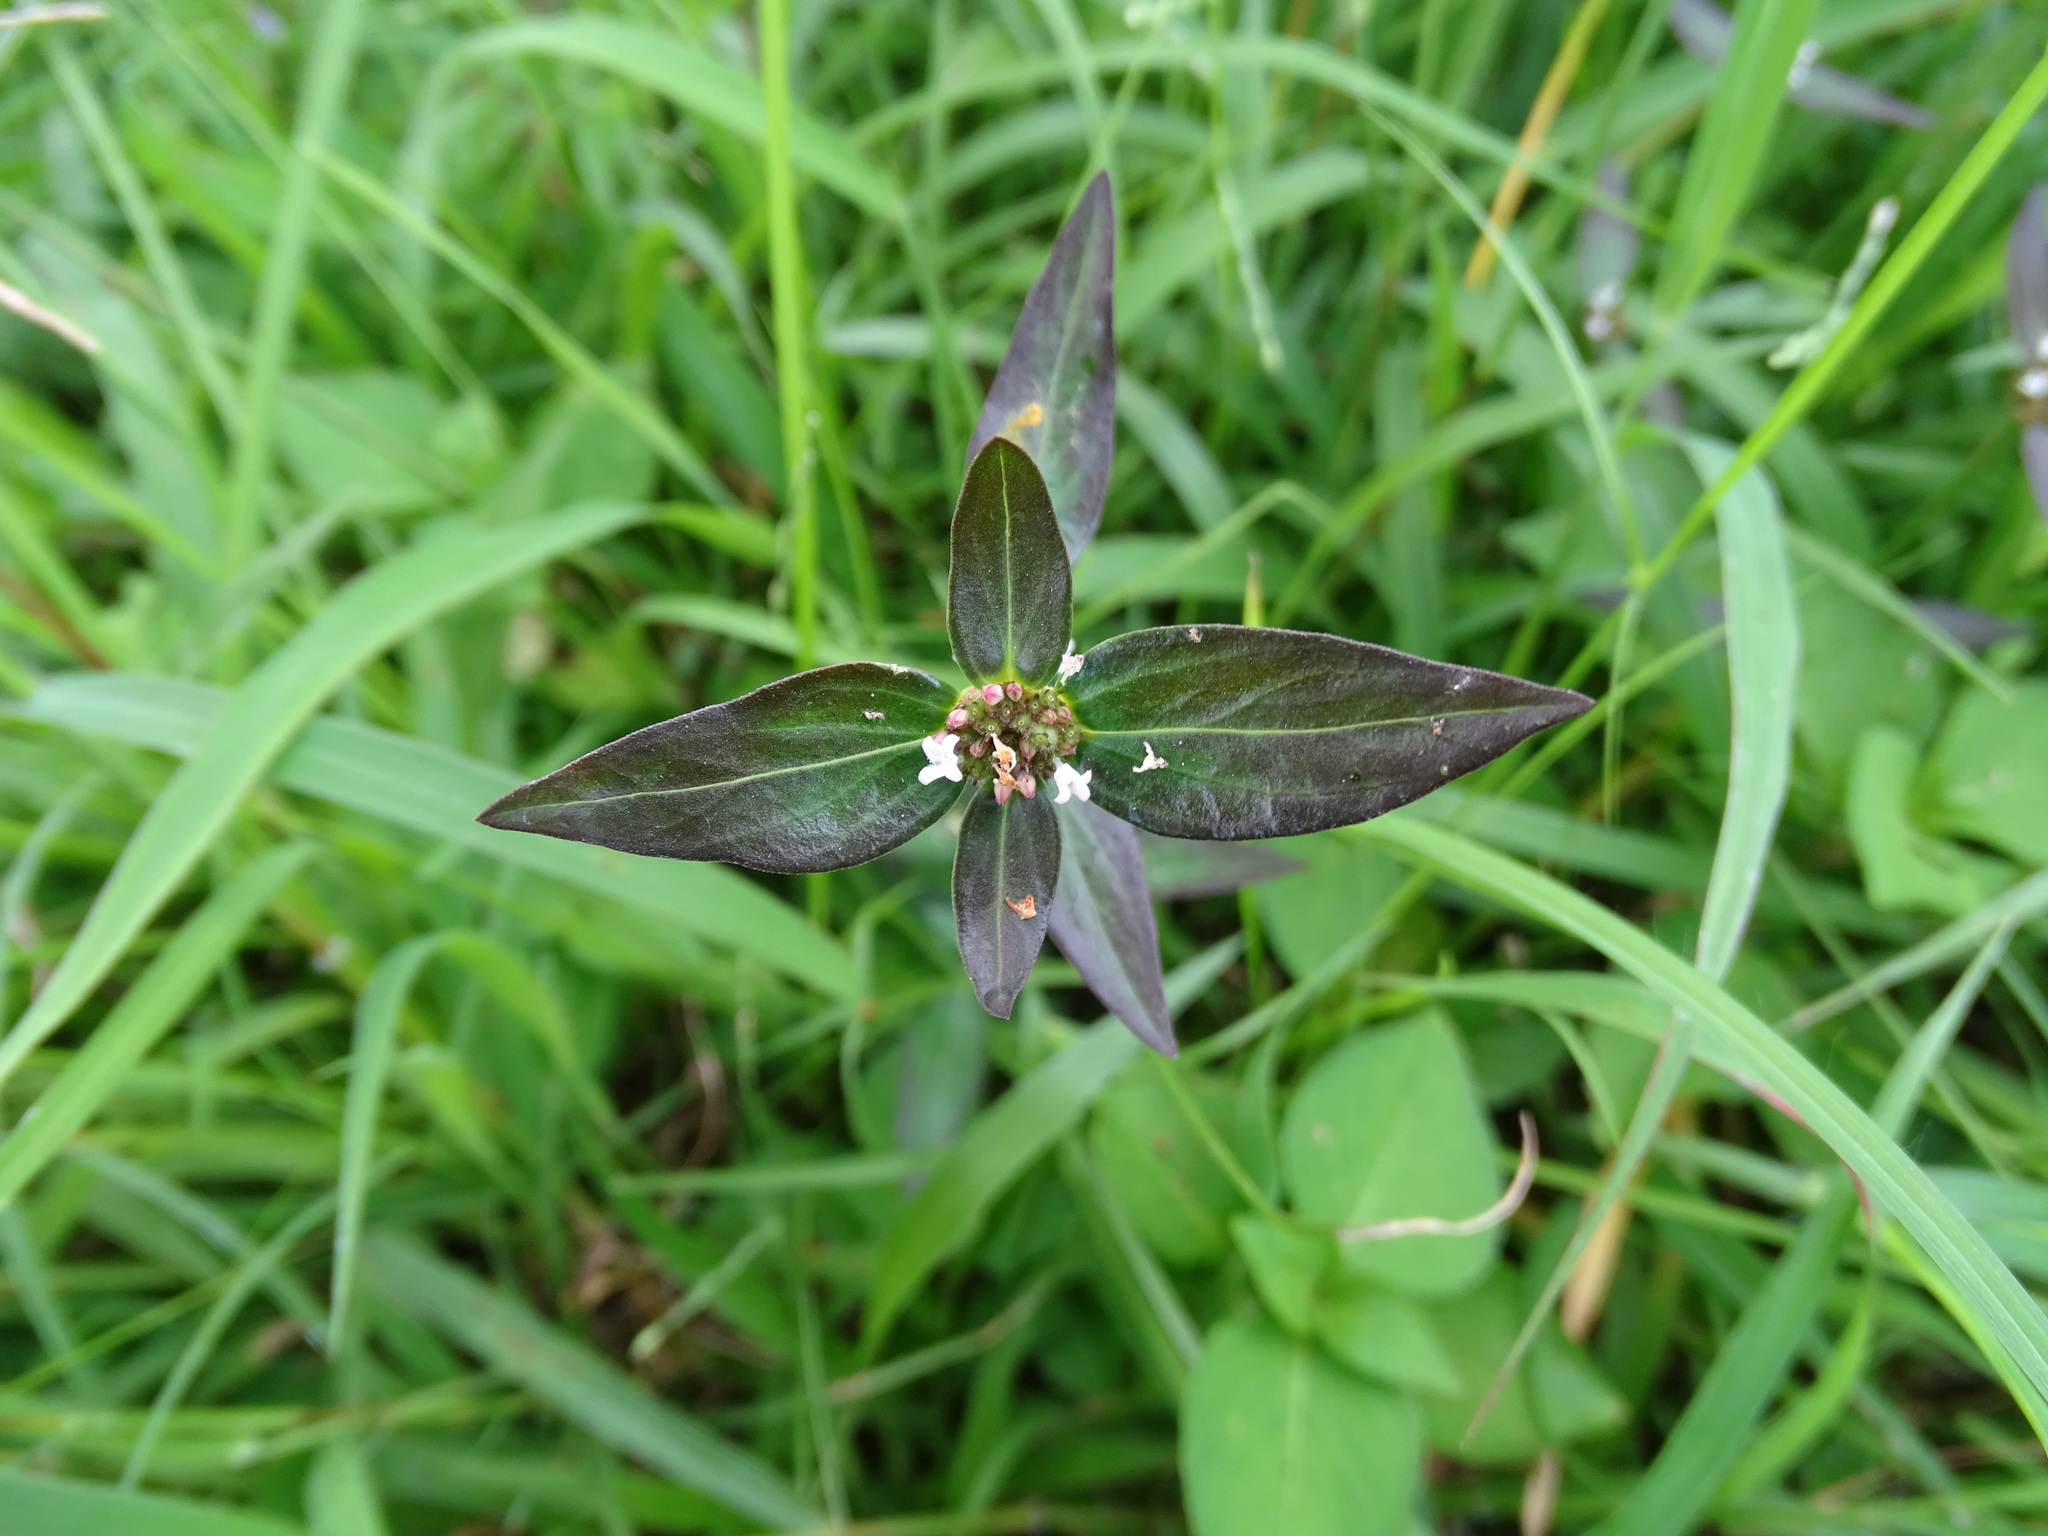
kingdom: Plantae
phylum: Tracheophyta
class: Magnoliopsida
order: Gentianales
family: Rubiaceae
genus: Spermacoce
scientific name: Spermacoce remota
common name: Woodland false buttonweed
